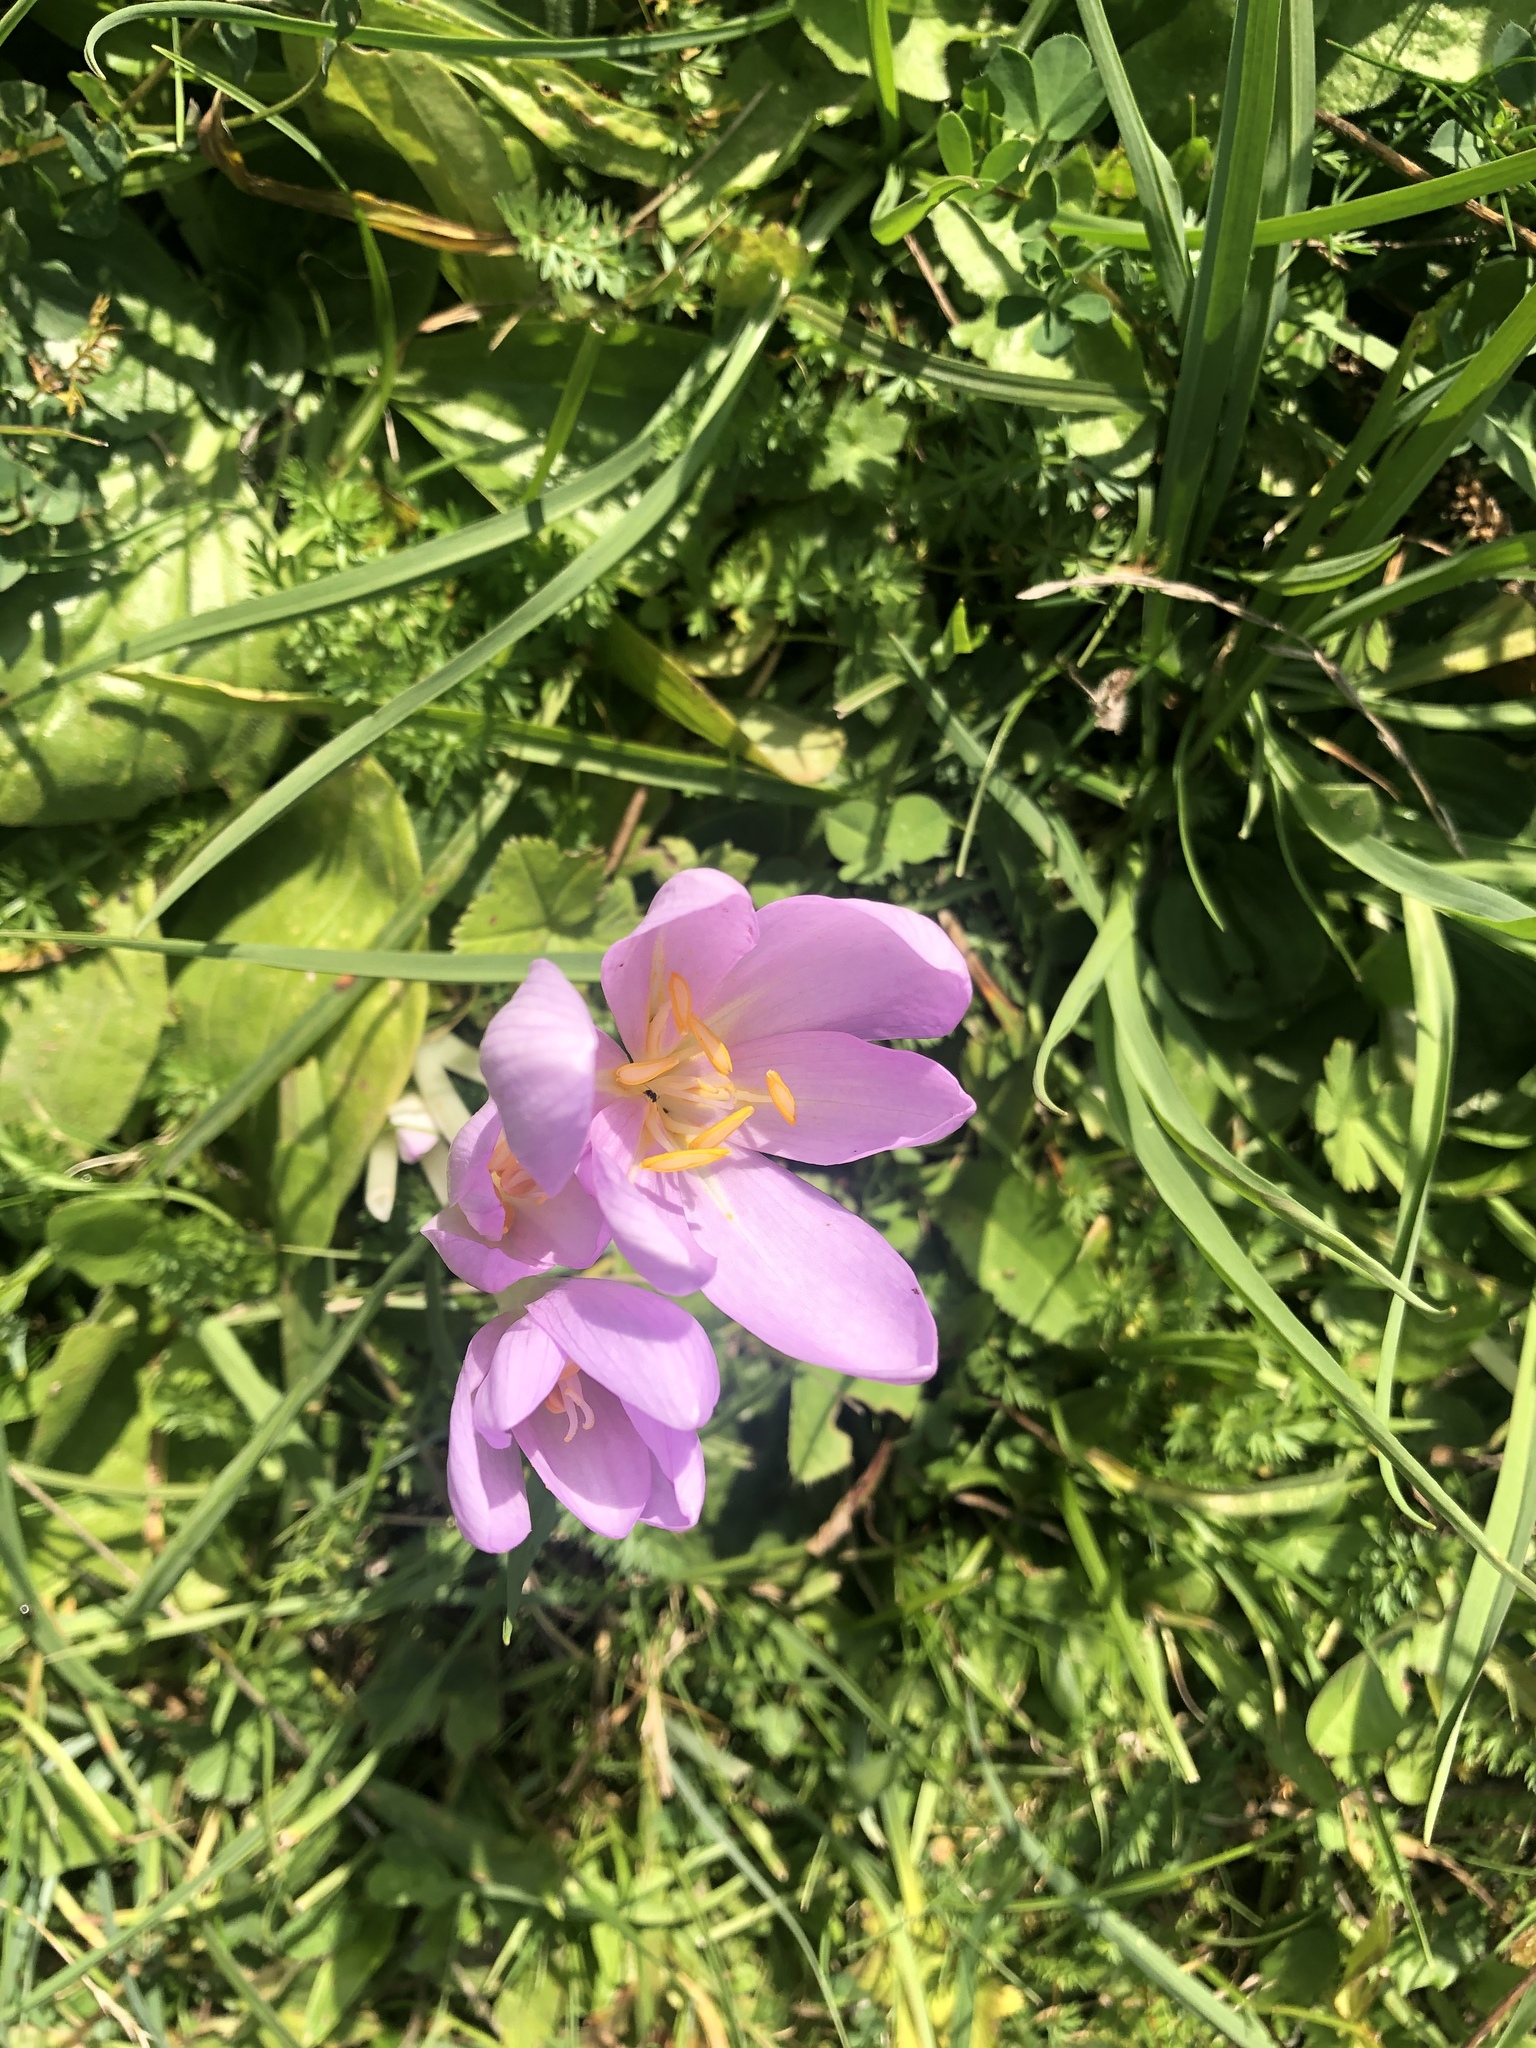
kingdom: Plantae
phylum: Tracheophyta
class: Liliopsida
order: Liliales
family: Colchicaceae
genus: Colchicum
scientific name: Colchicum autumnale
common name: Autumn crocus
